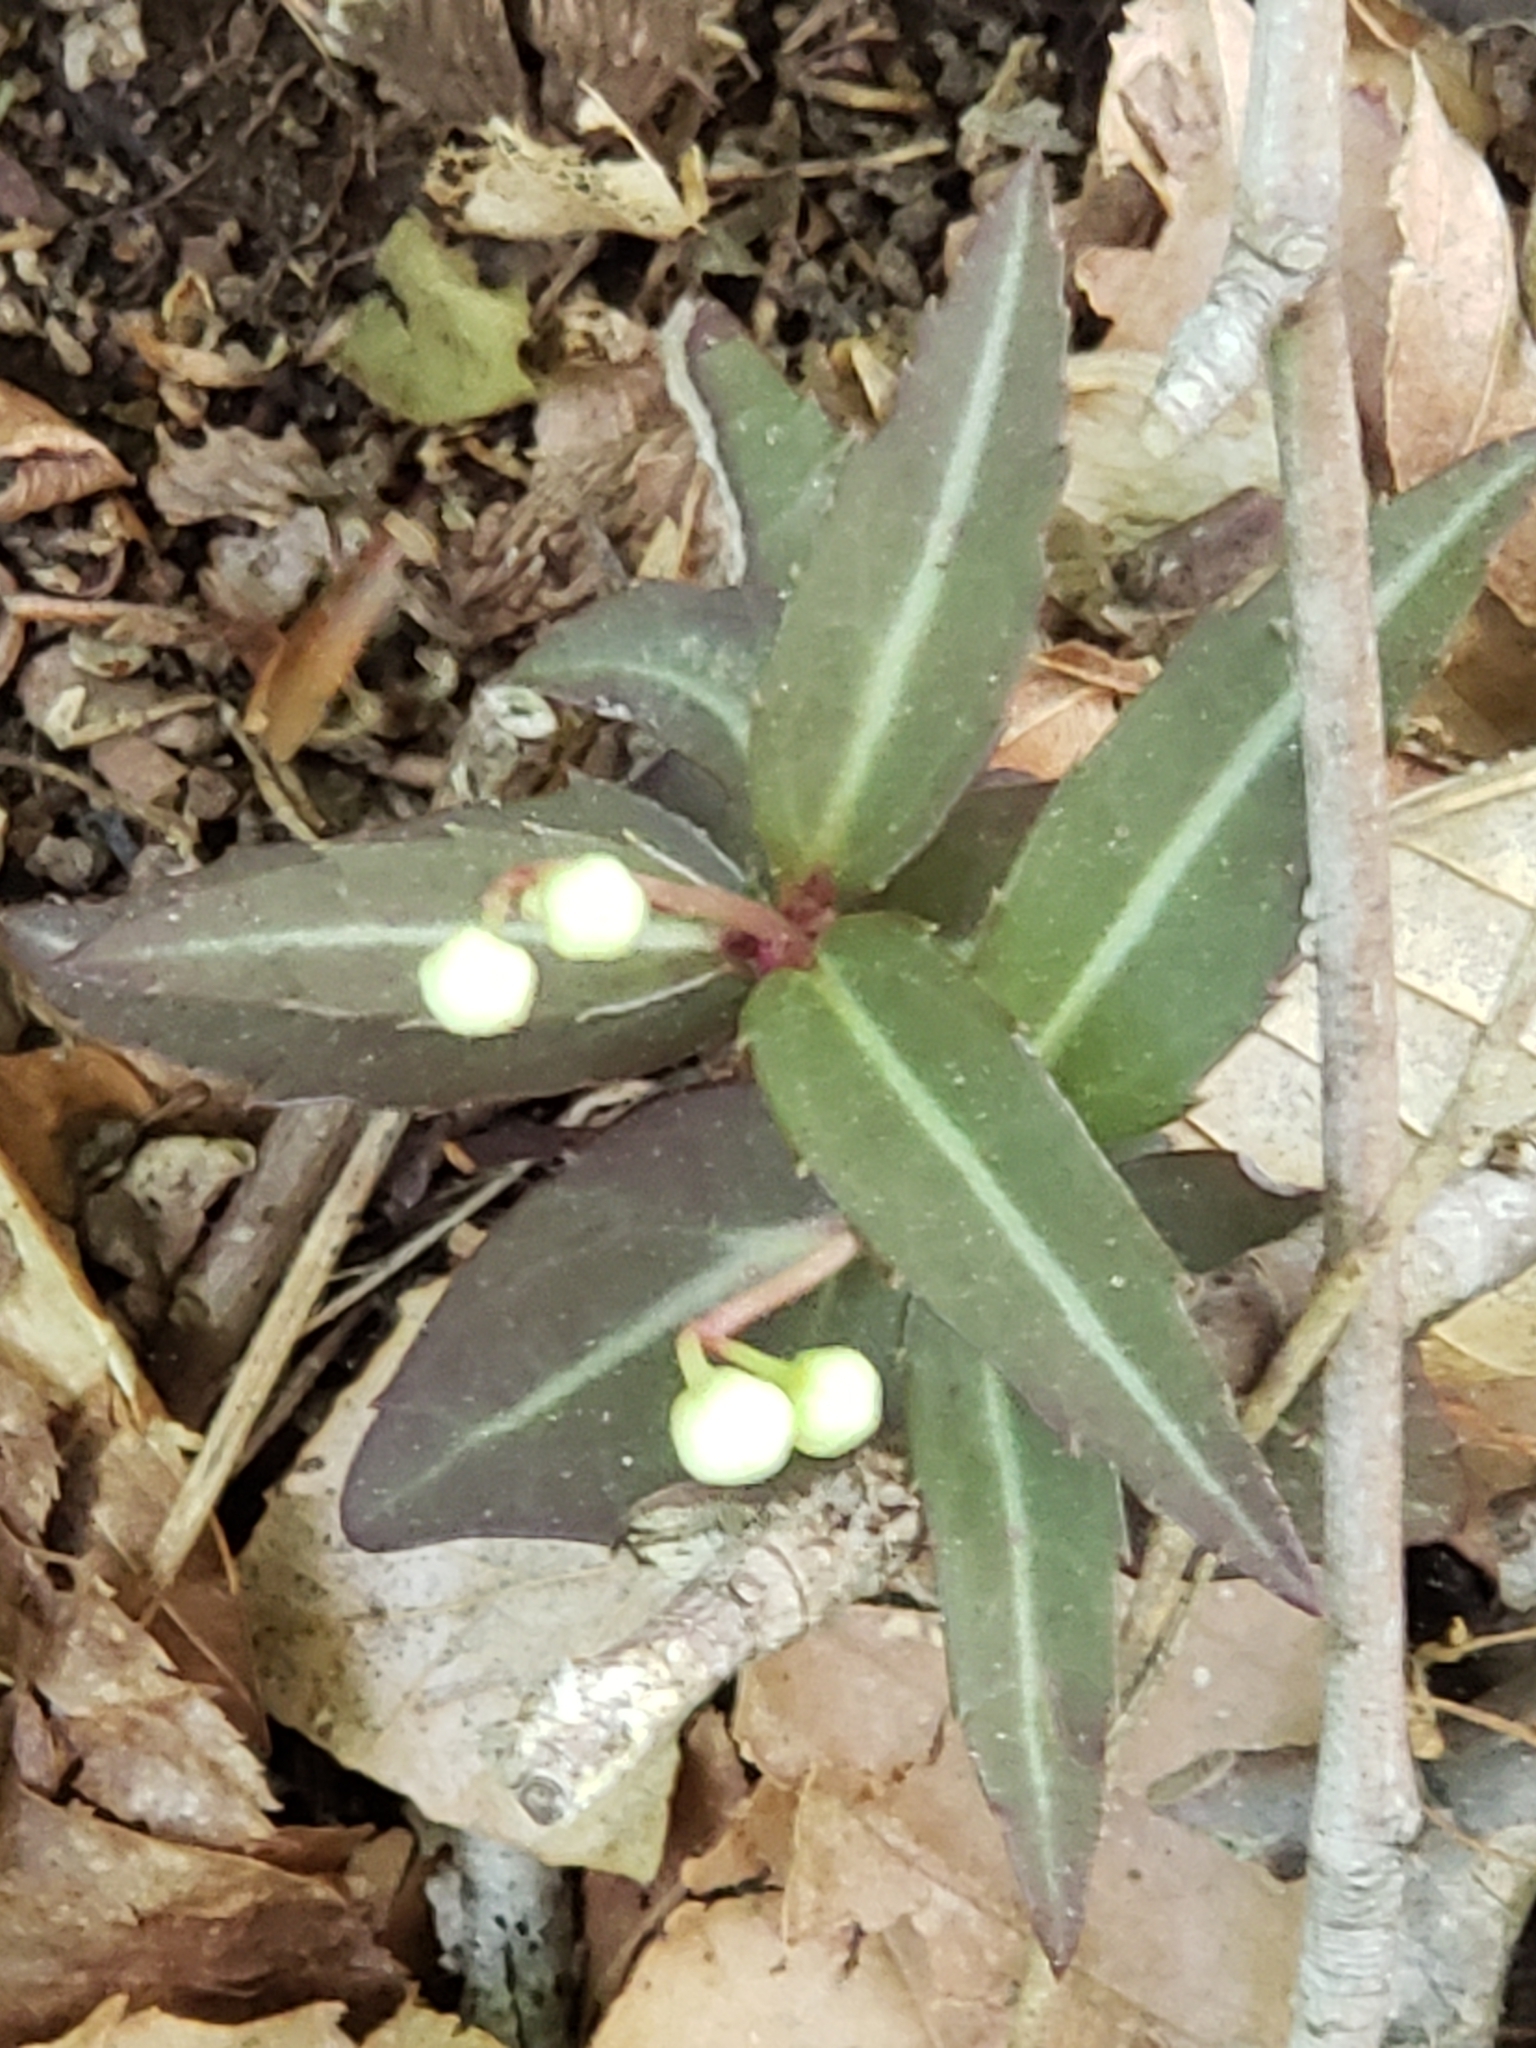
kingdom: Plantae
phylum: Tracheophyta
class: Magnoliopsida
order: Ericales
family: Ericaceae
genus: Chimaphila
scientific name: Chimaphila maculata
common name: Spotted pipsissewa
